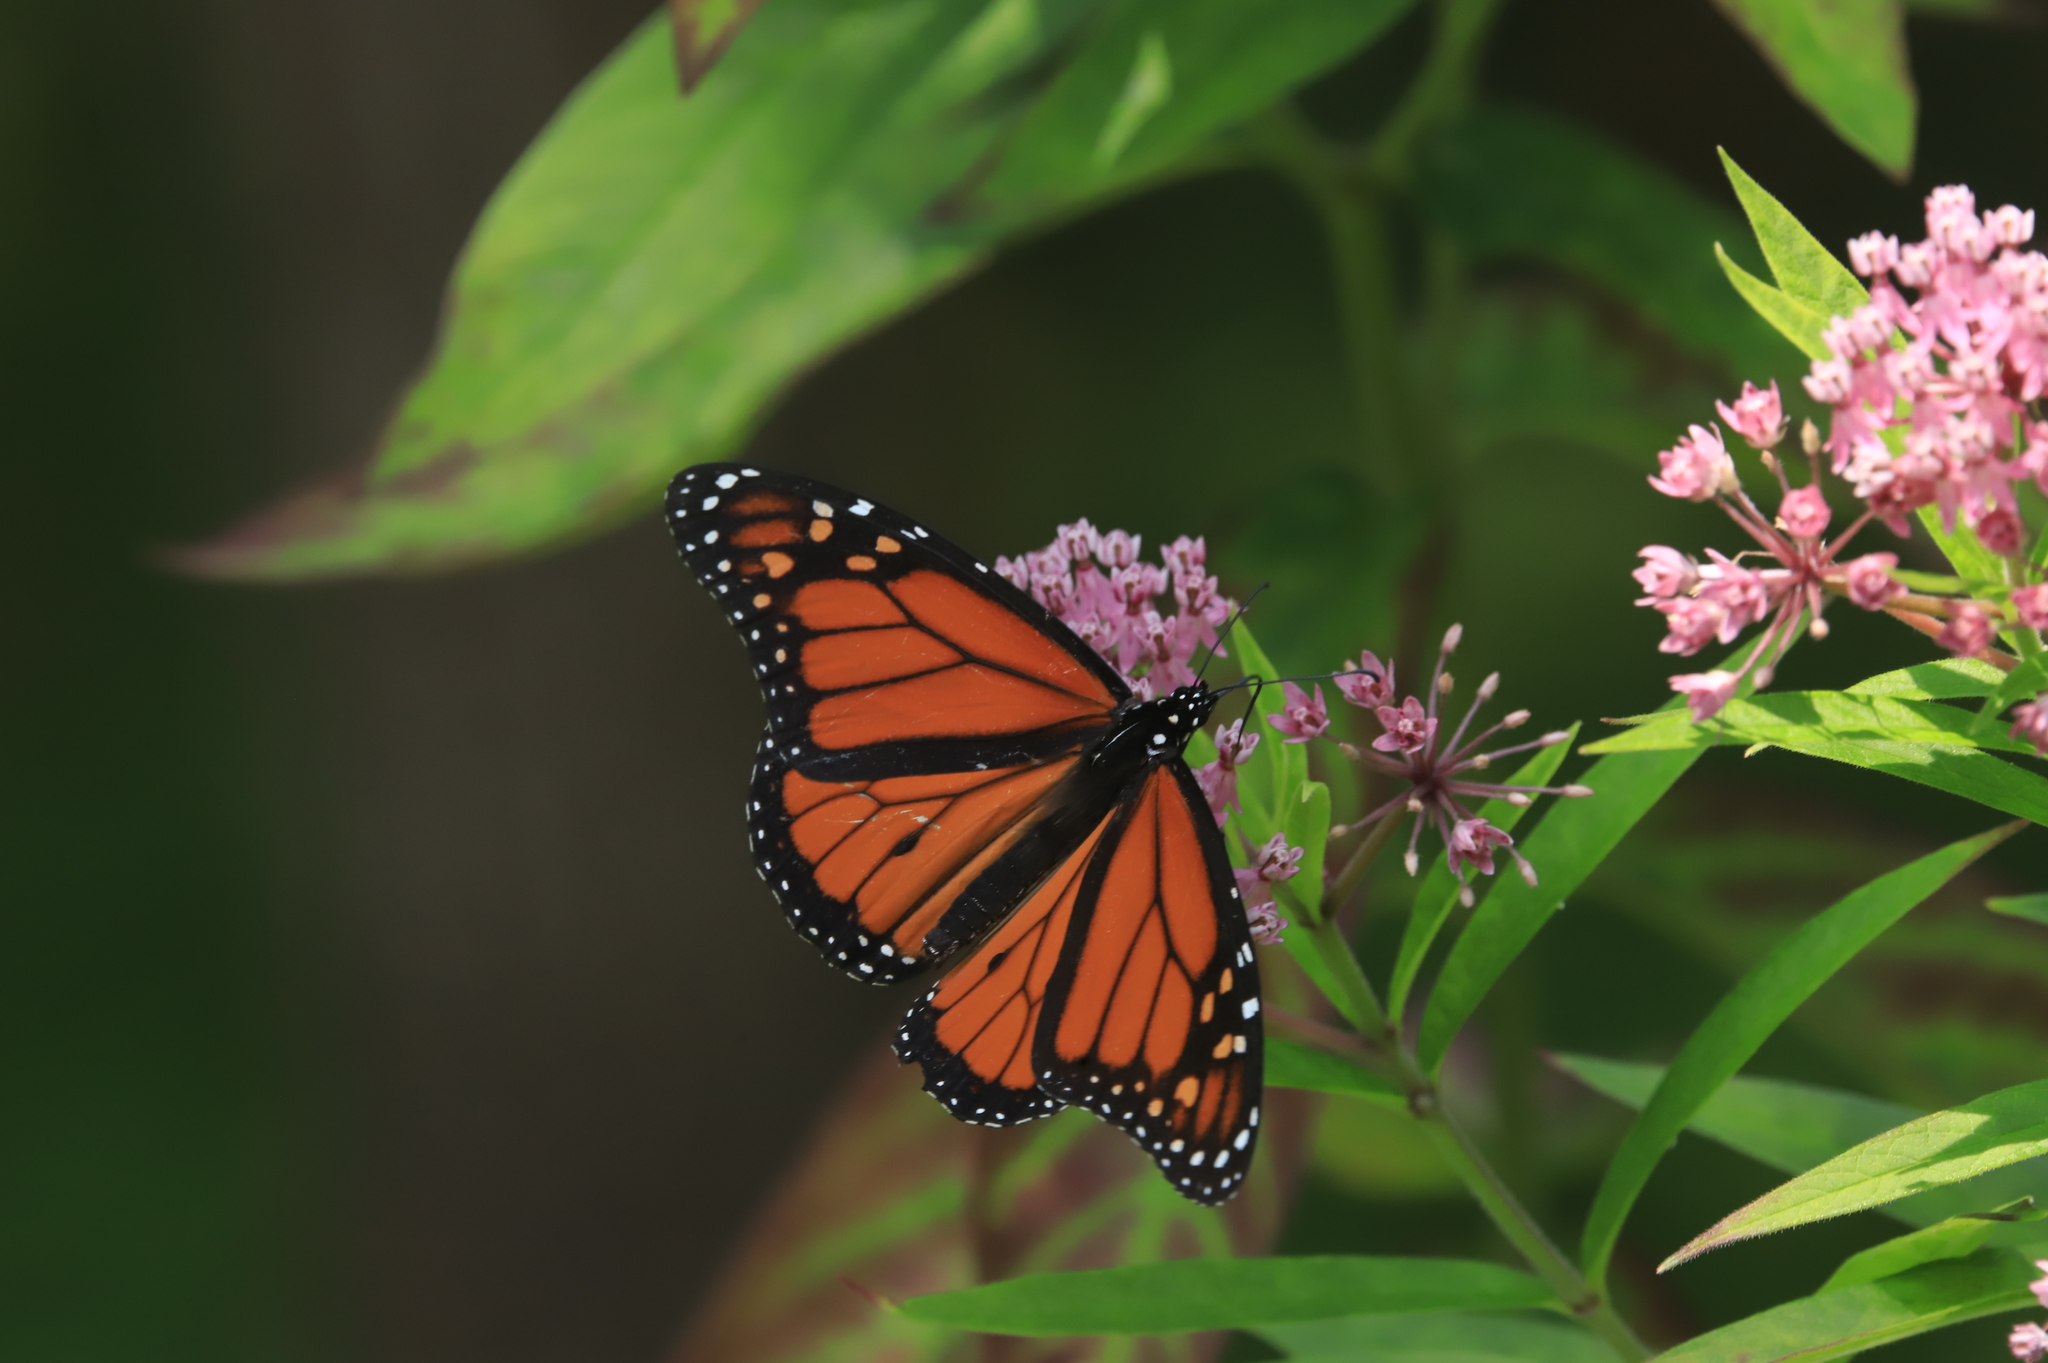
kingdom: Animalia
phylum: Arthropoda
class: Insecta
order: Lepidoptera
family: Nymphalidae
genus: Danaus
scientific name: Danaus plexippus
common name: Monarch
